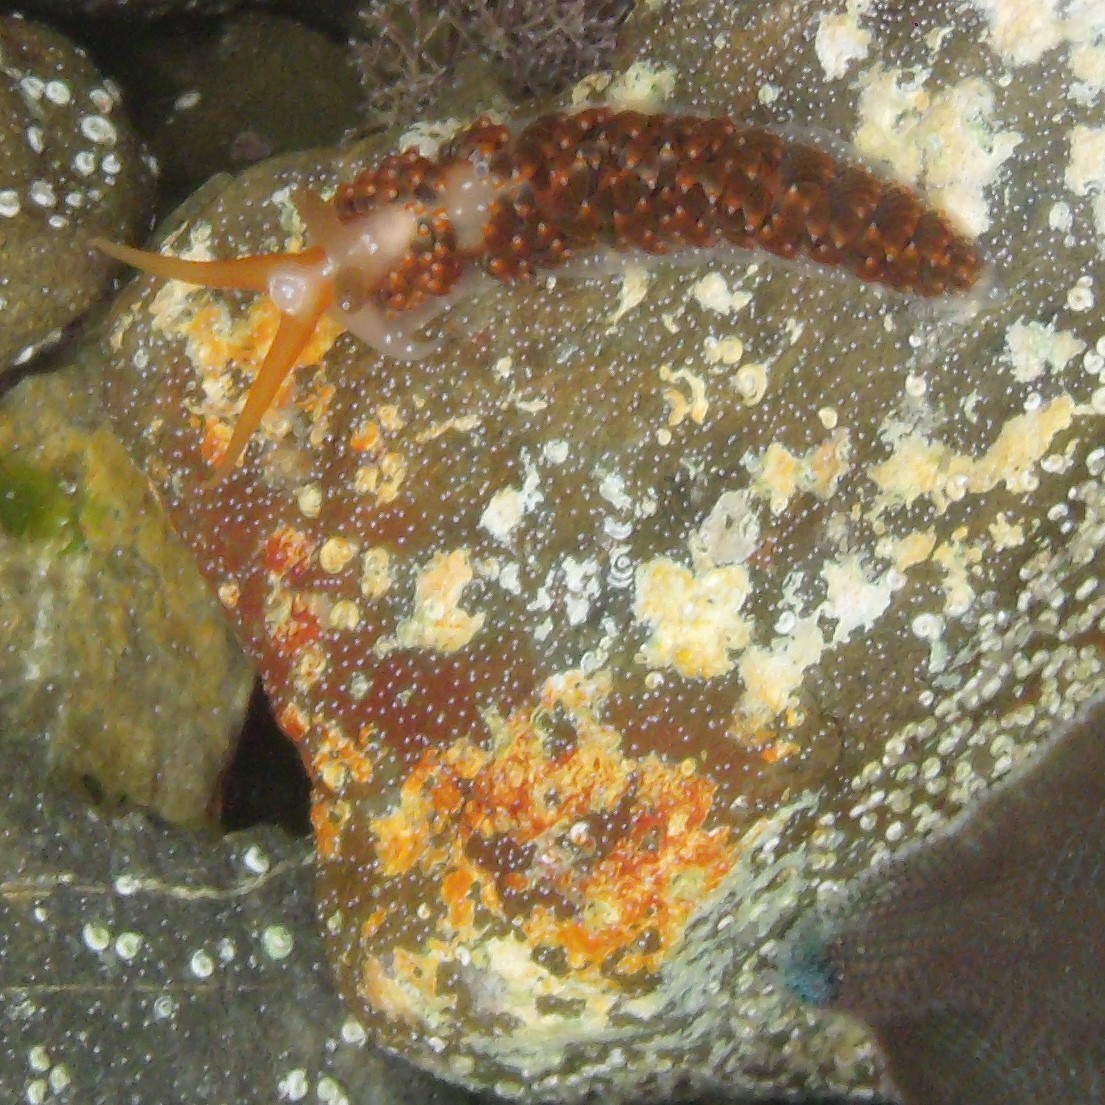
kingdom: Animalia
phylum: Mollusca
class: Gastropoda
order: Nudibranchia
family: Aeolidiidae
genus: Baeolidia
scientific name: Baeolidia australis
